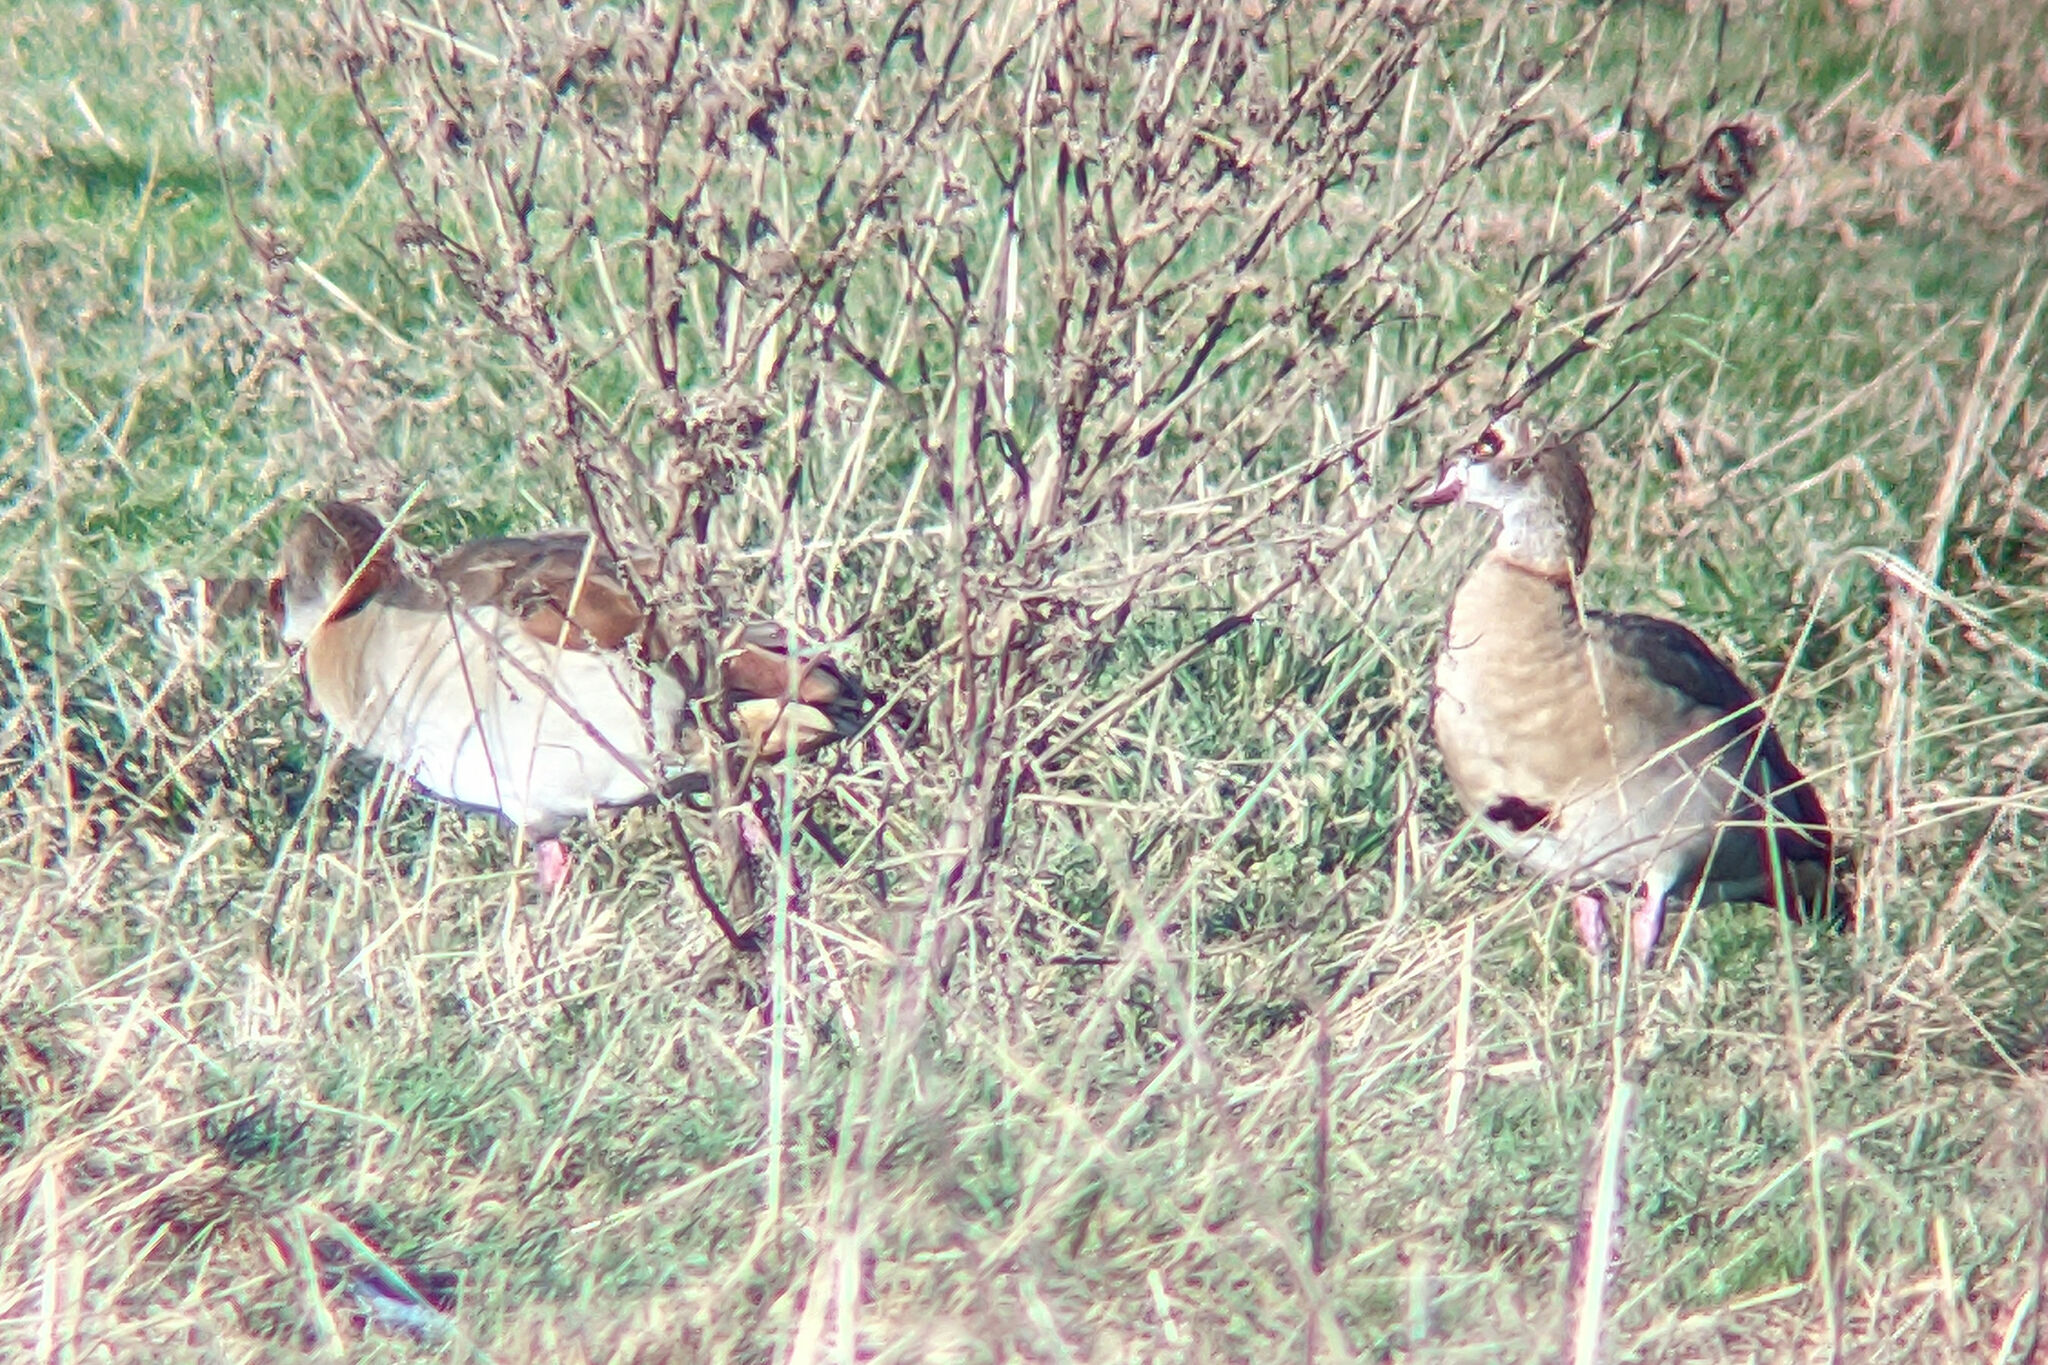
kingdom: Animalia
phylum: Chordata
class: Aves
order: Anseriformes
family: Anatidae
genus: Alopochen
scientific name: Alopochen aegyptiaca
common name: Egyptian goose
